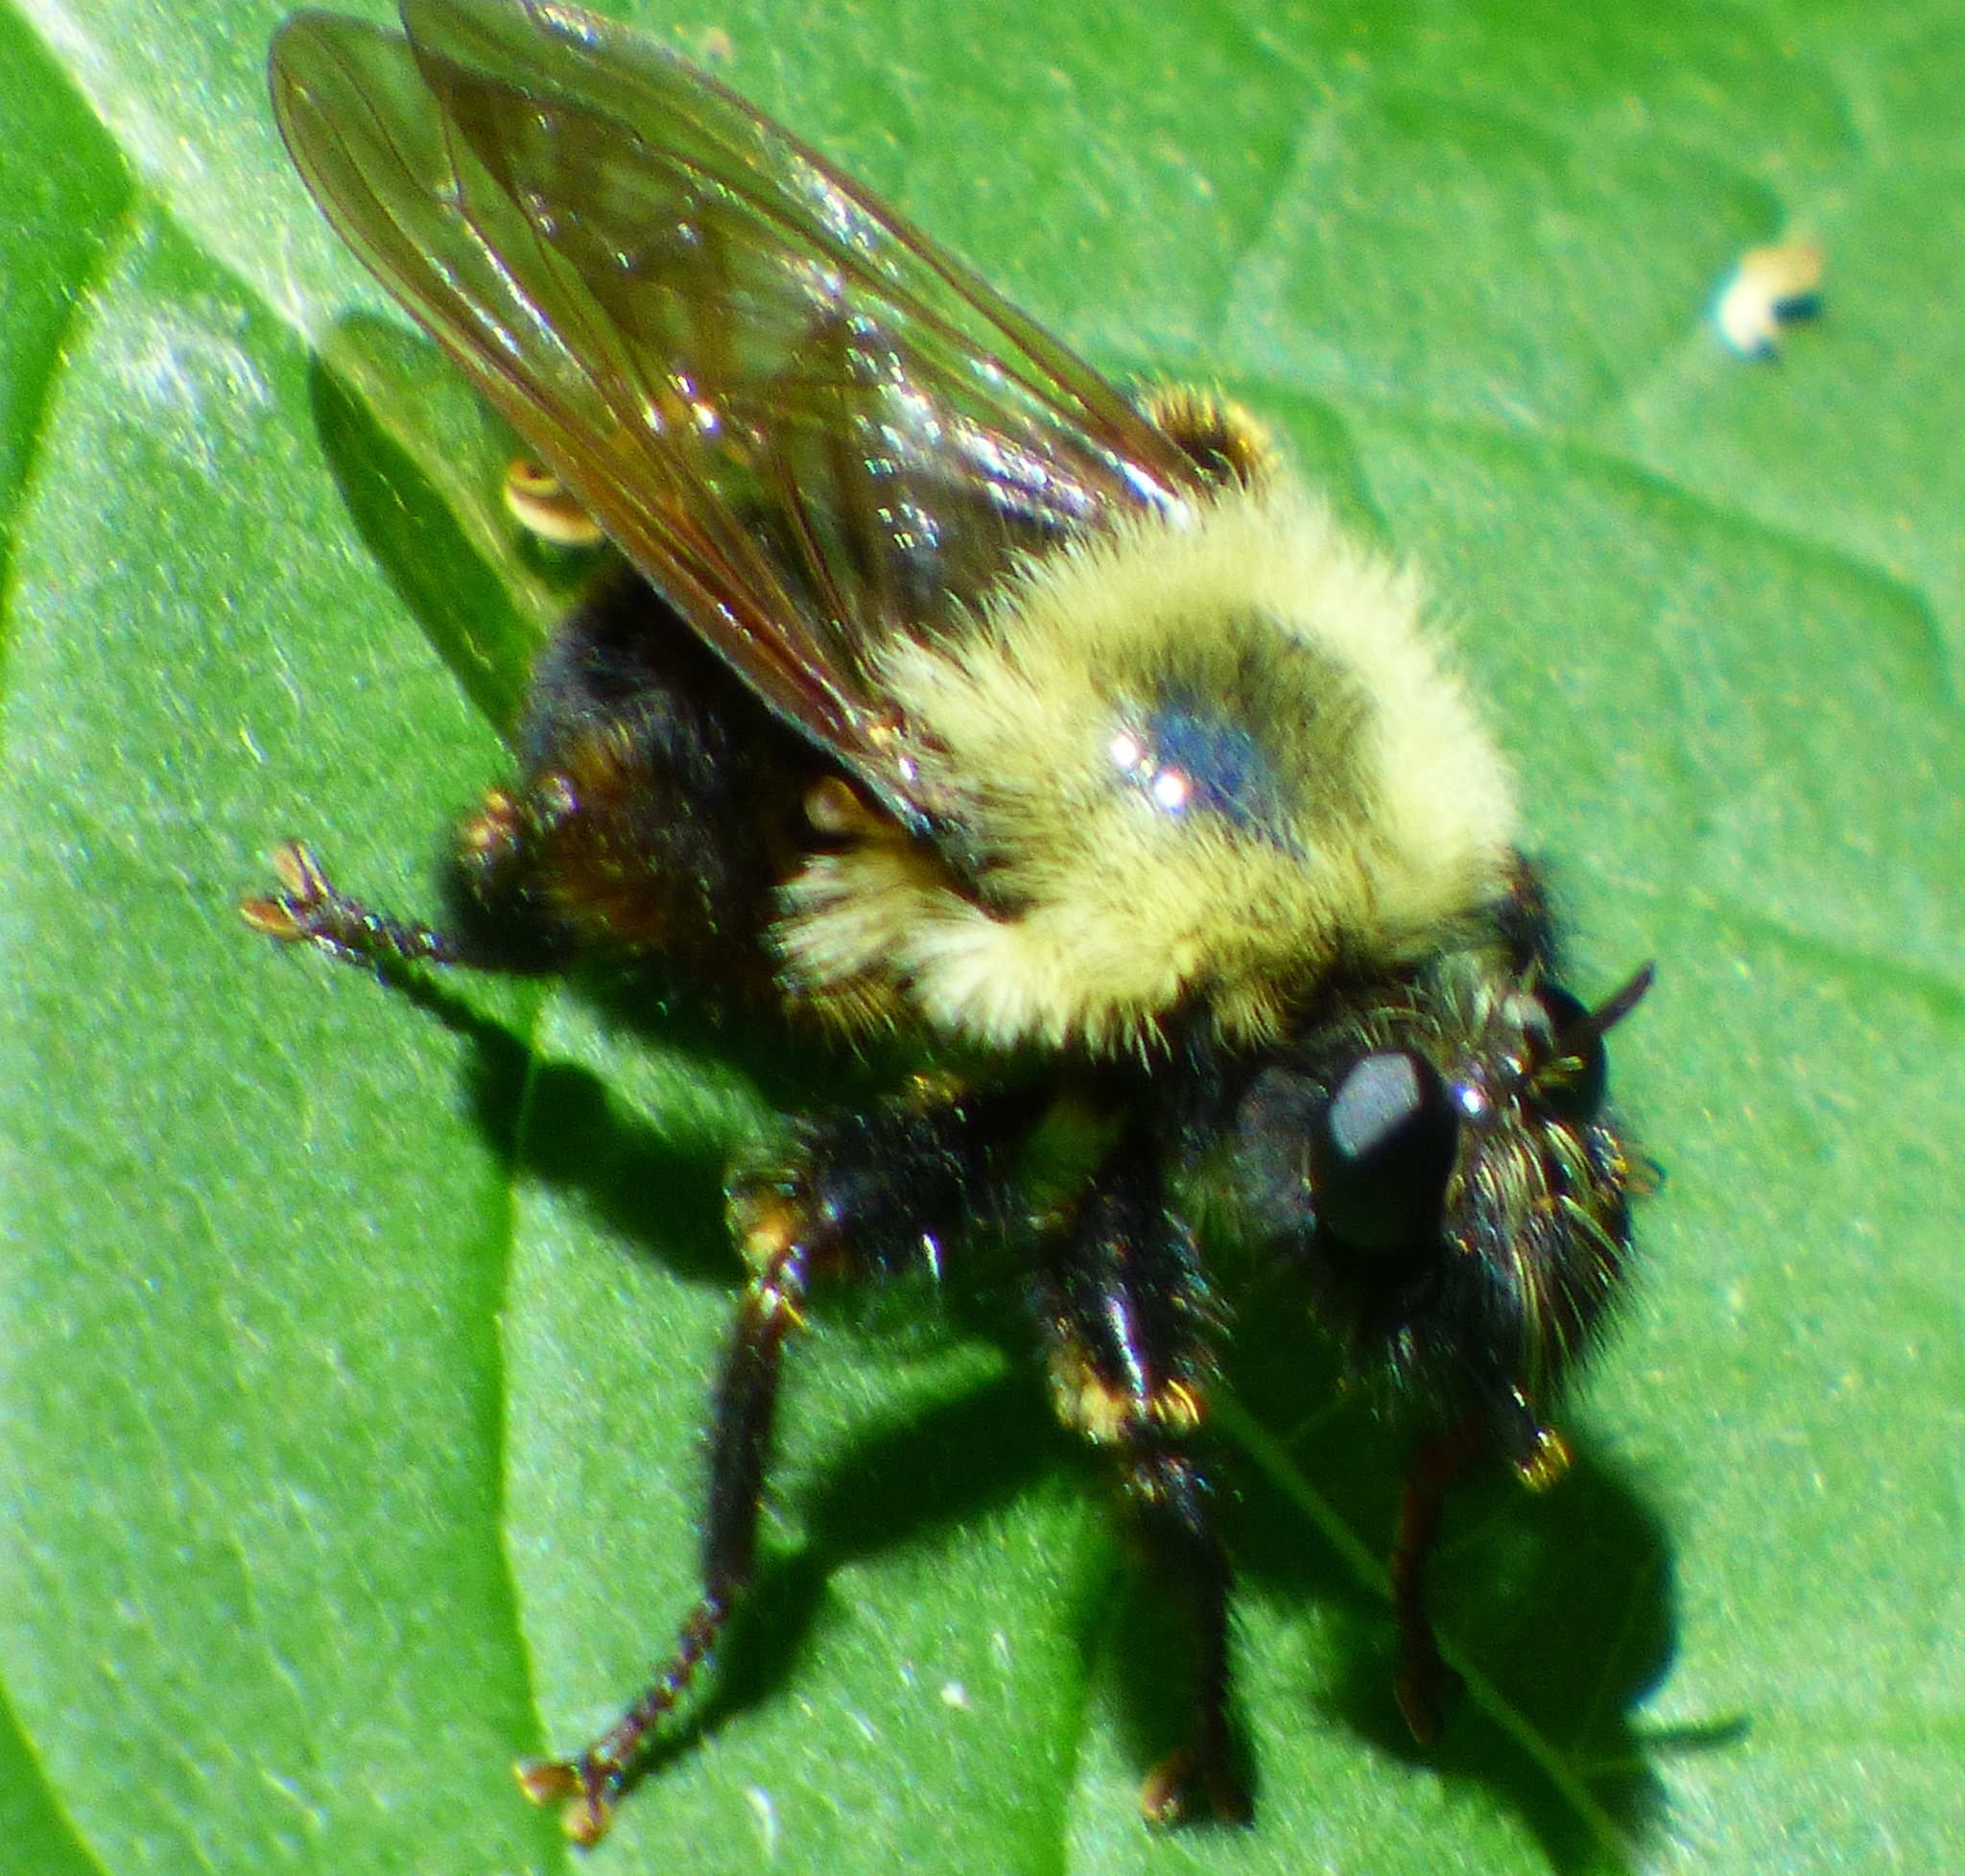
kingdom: Animalia
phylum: Arthropoda
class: Insecta
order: Diptera
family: Asilidae
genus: Laphria
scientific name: Laphria thoracica
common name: Bumble bee mimic robber fly
